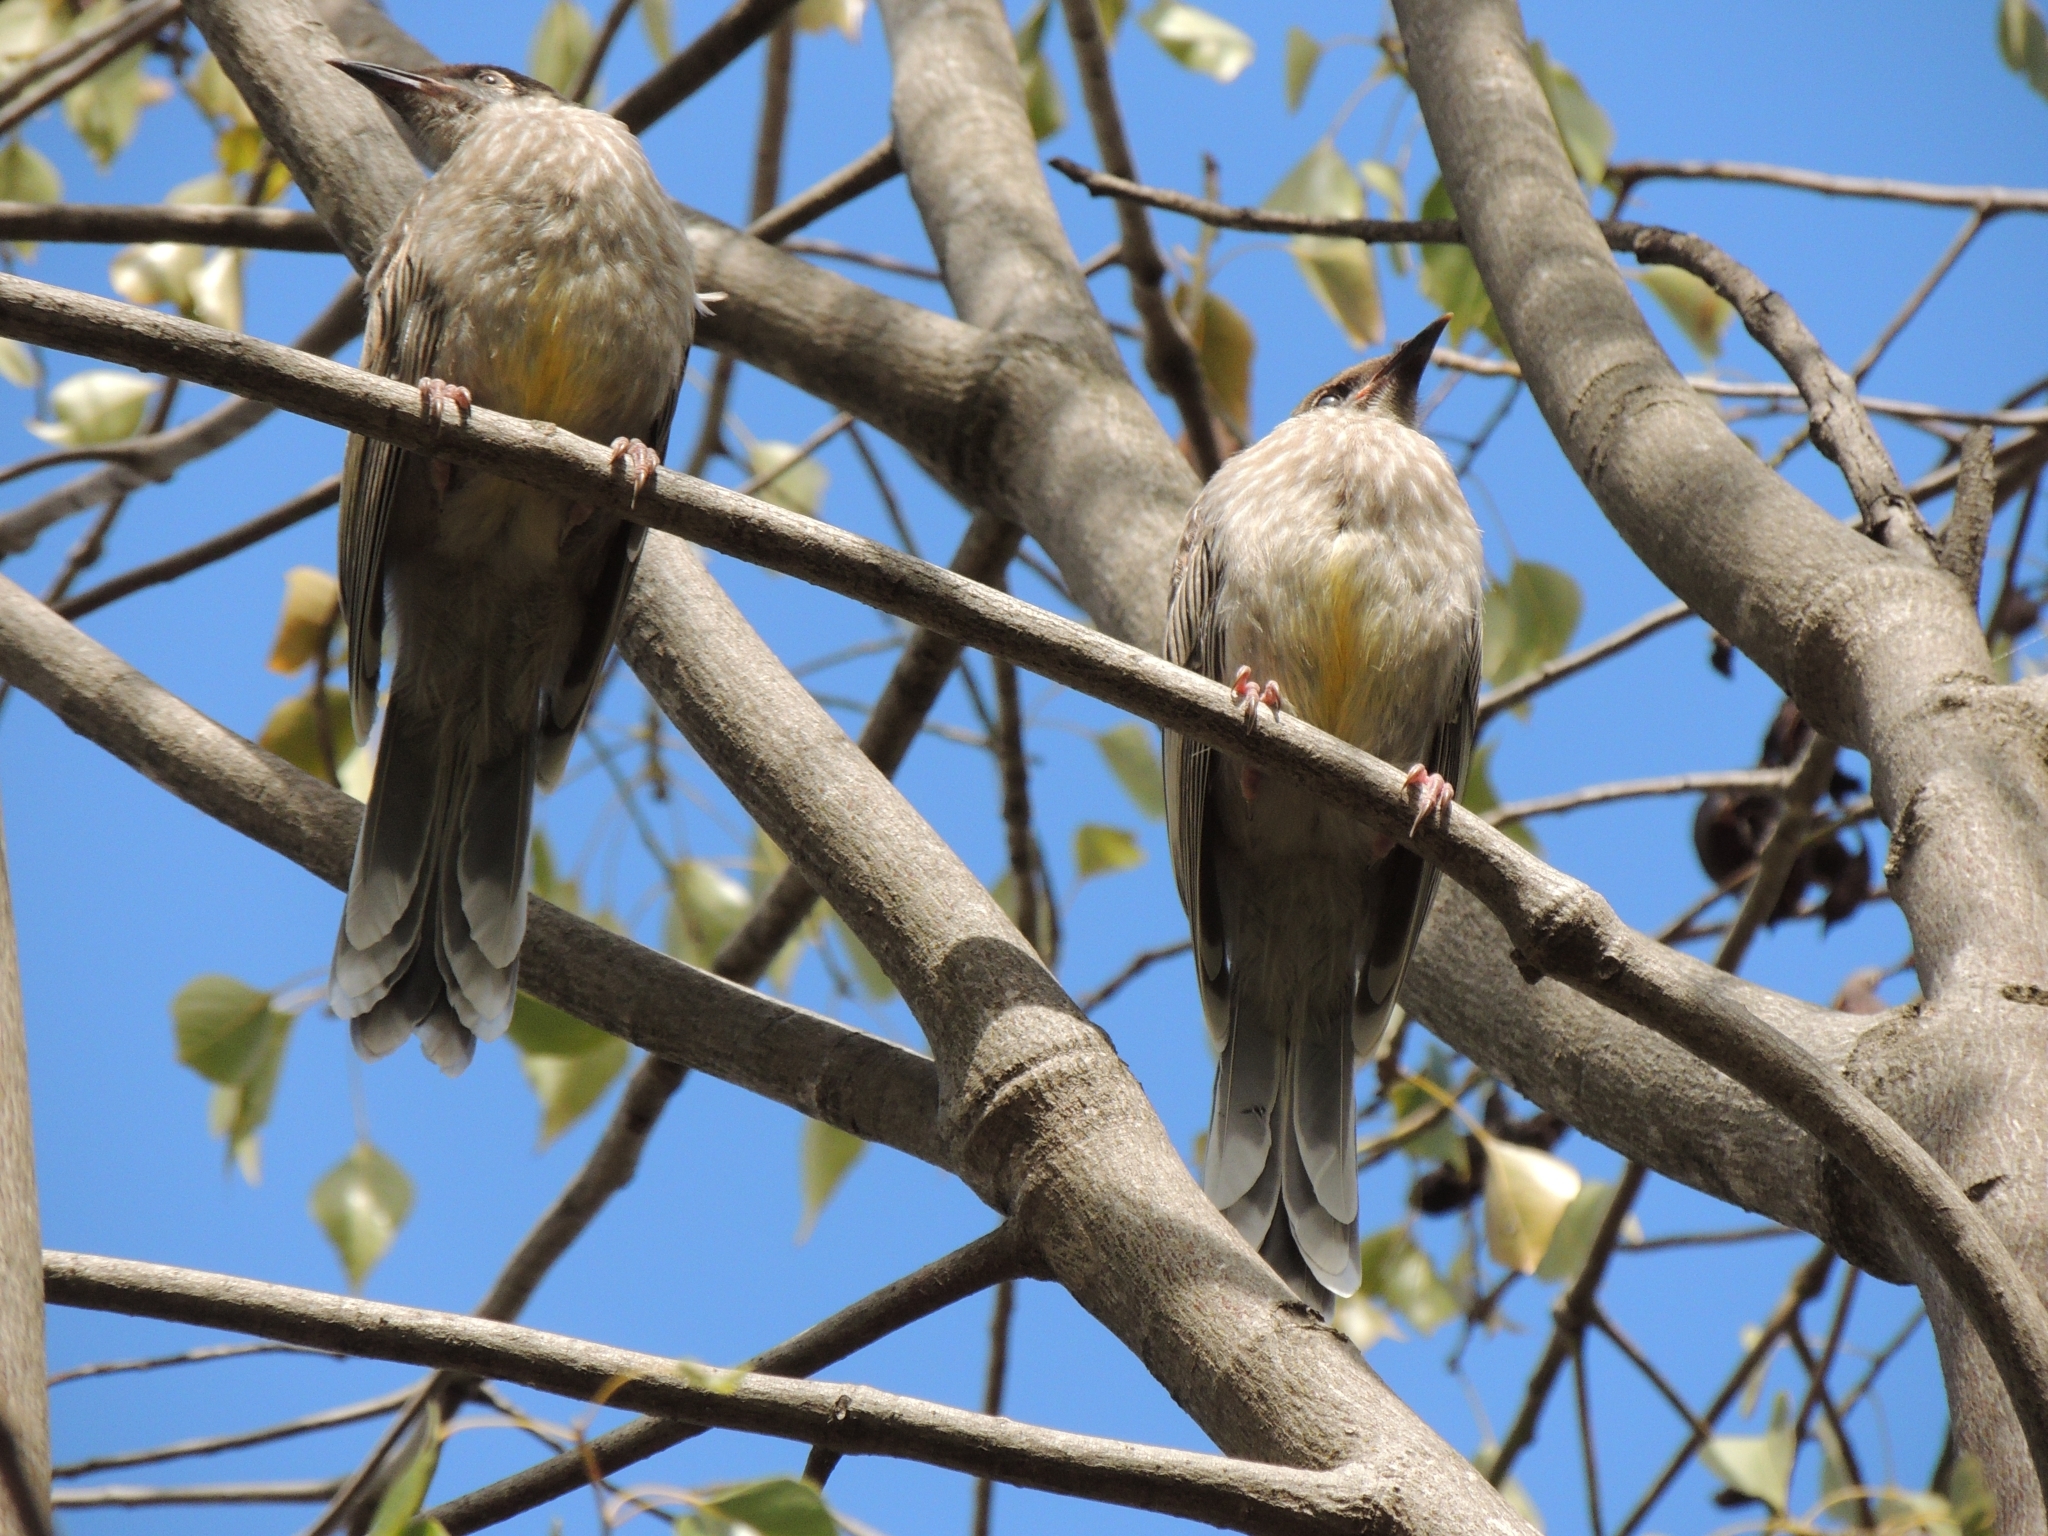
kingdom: Animalia
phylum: Chordata
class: Aves
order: Passeriformes
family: Meliphagidae
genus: Anthochaera
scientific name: Anthochaera carunculata
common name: Red wattlebird
